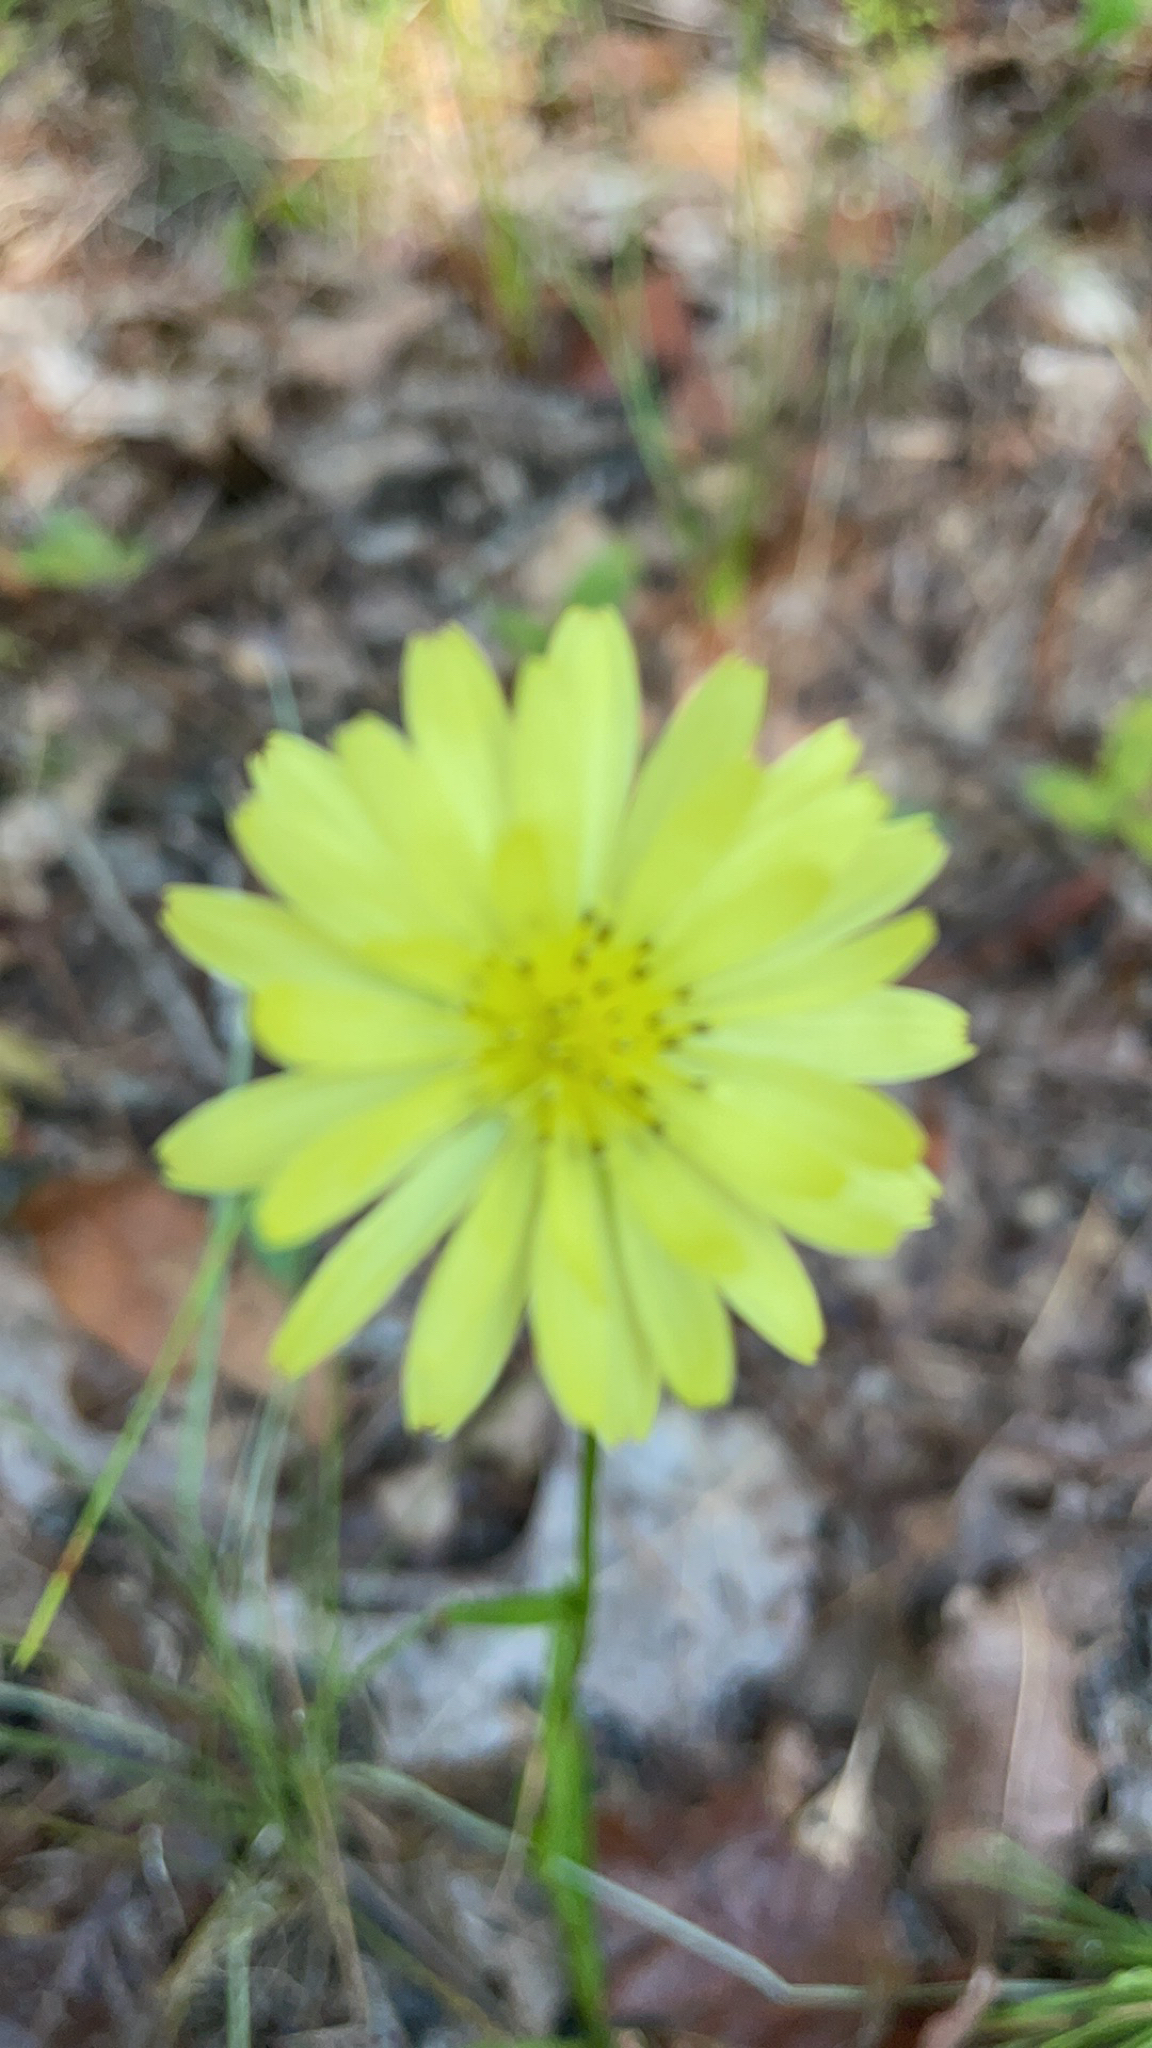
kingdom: Plantae
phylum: Tracheophyta
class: Magnoliopsida
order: Asterales
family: Asteraceae
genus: Pyrrhopappus
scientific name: Pyrrhopappus carolinianus
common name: Carolina desert-chicory
